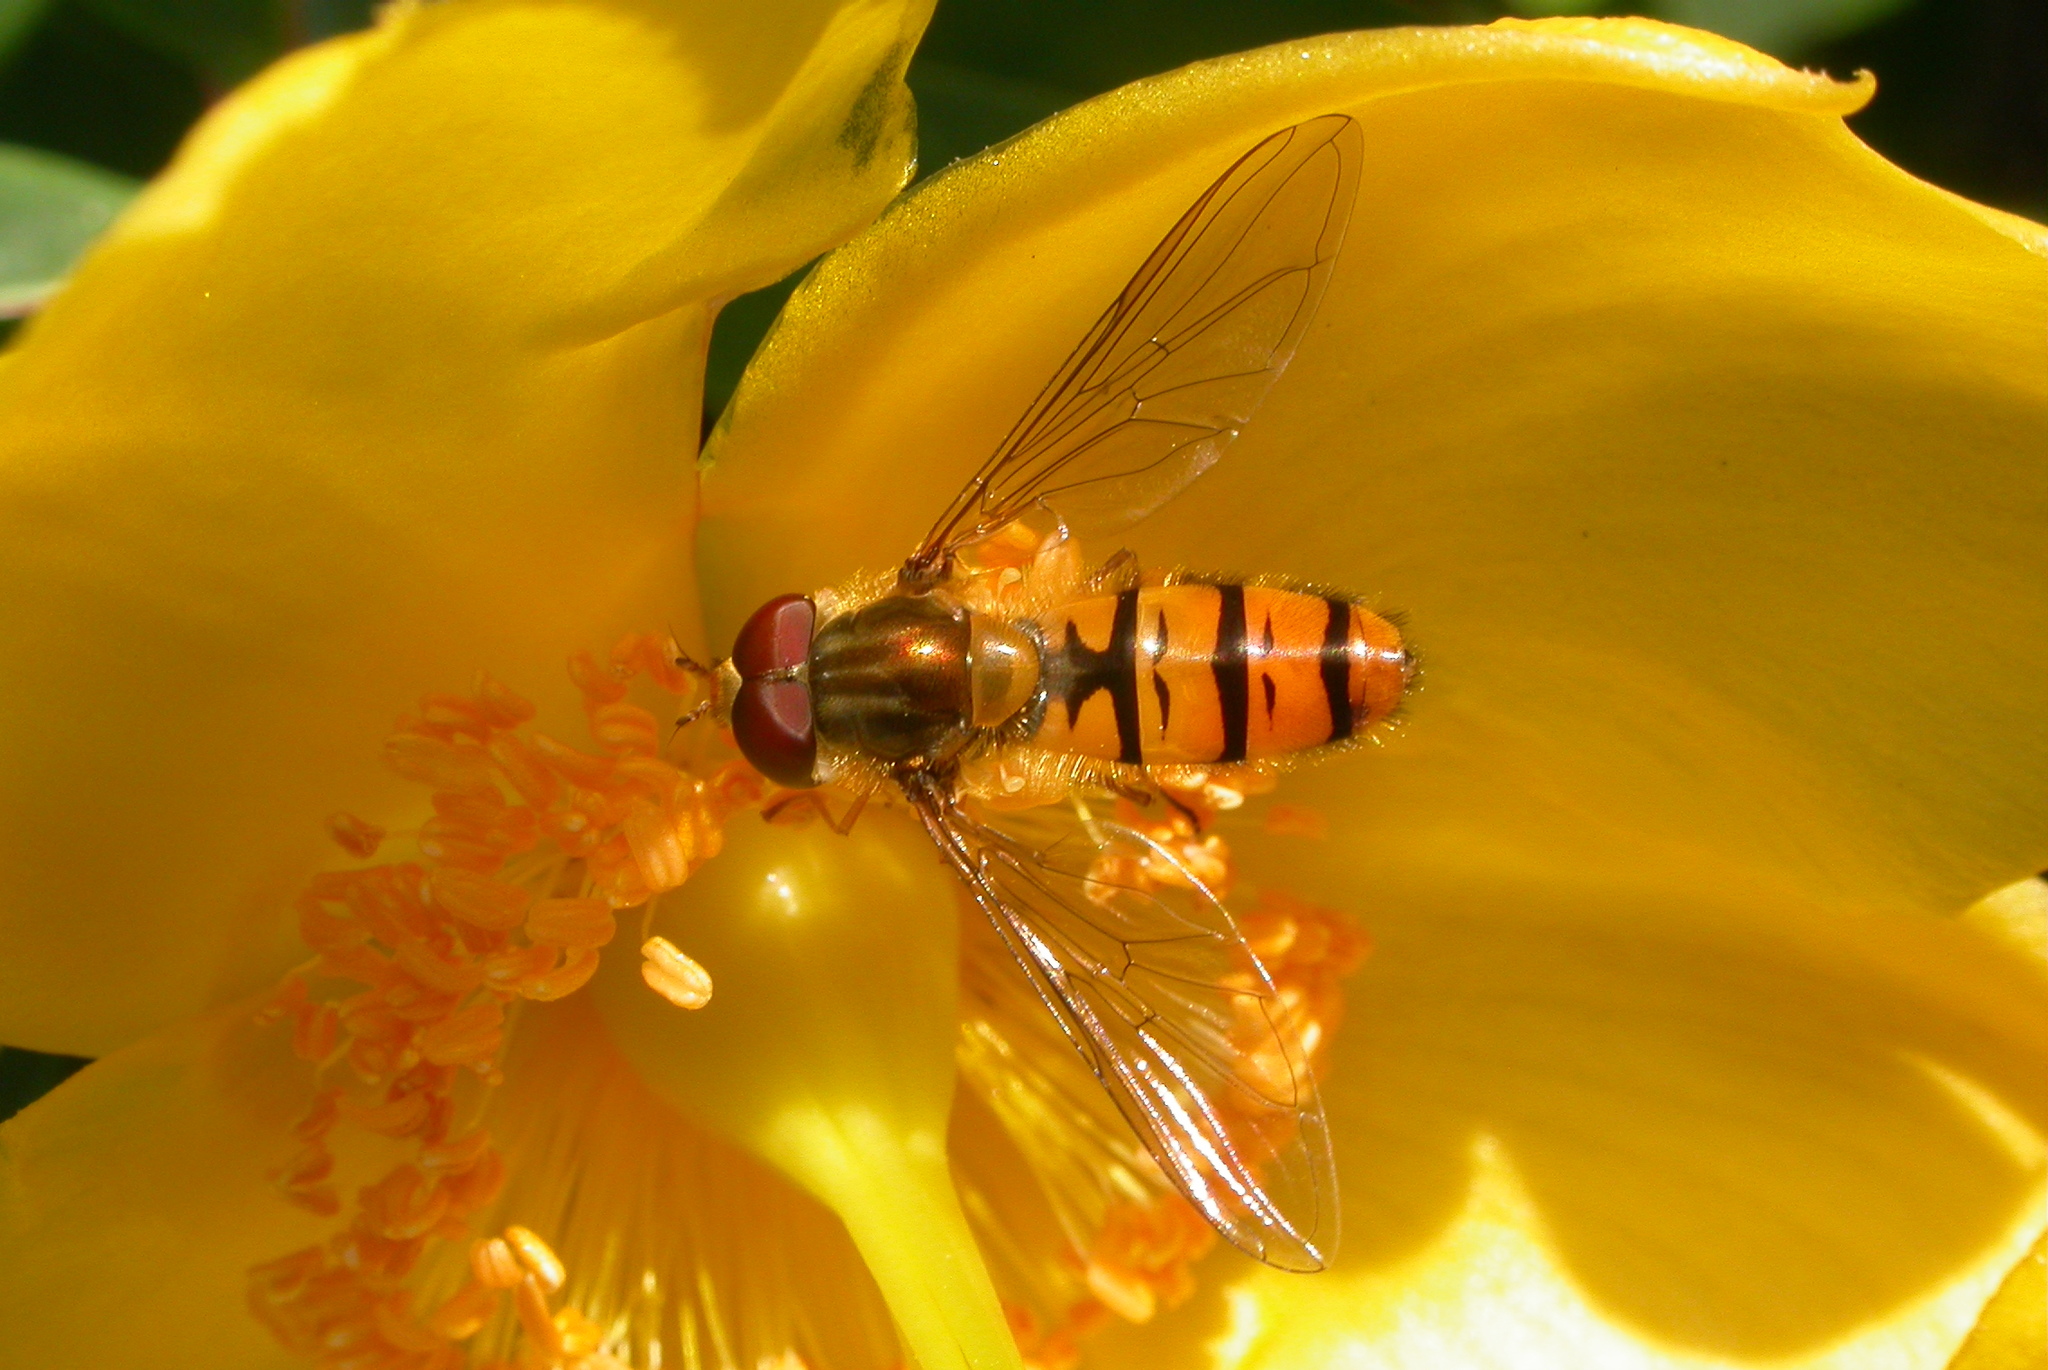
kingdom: Animalia
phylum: Arthropoda
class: Insecta
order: Diptera
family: Syrphidae
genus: Episyrphus
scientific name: Episyrphus balteatus
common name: Marmalade hoverfly
